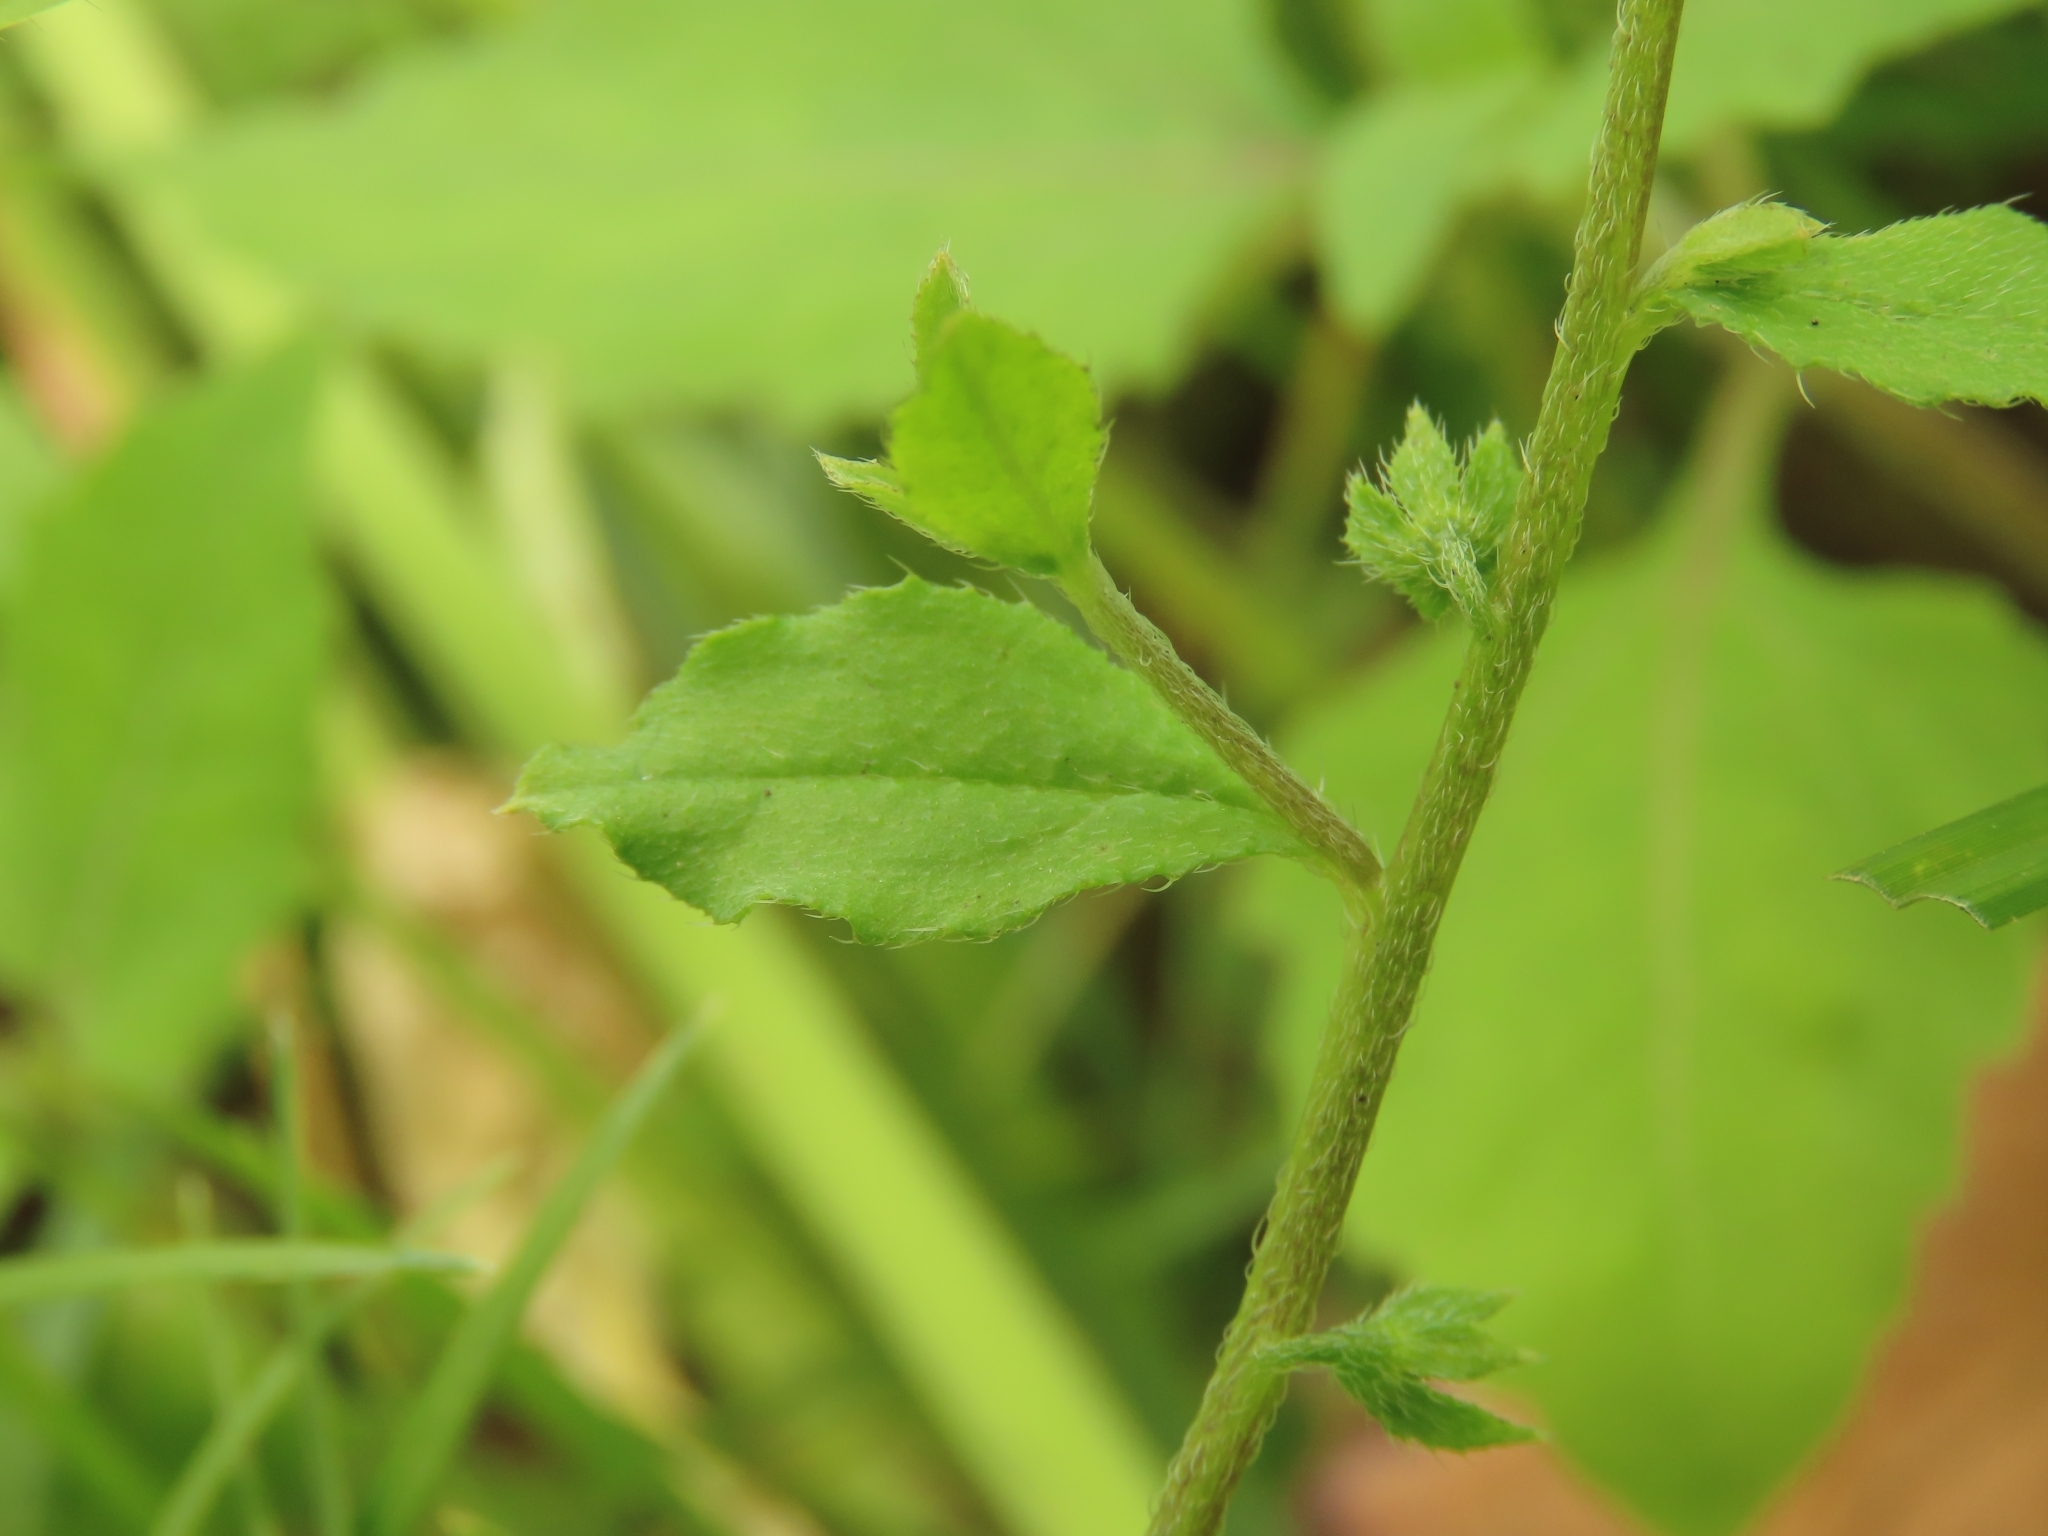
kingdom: Plantae
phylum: Tracheophyta
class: Magnoliopsida
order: Boraginales
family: Boraginaceae
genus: Bothriospermum
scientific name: Bothriospermum zeylanicum
